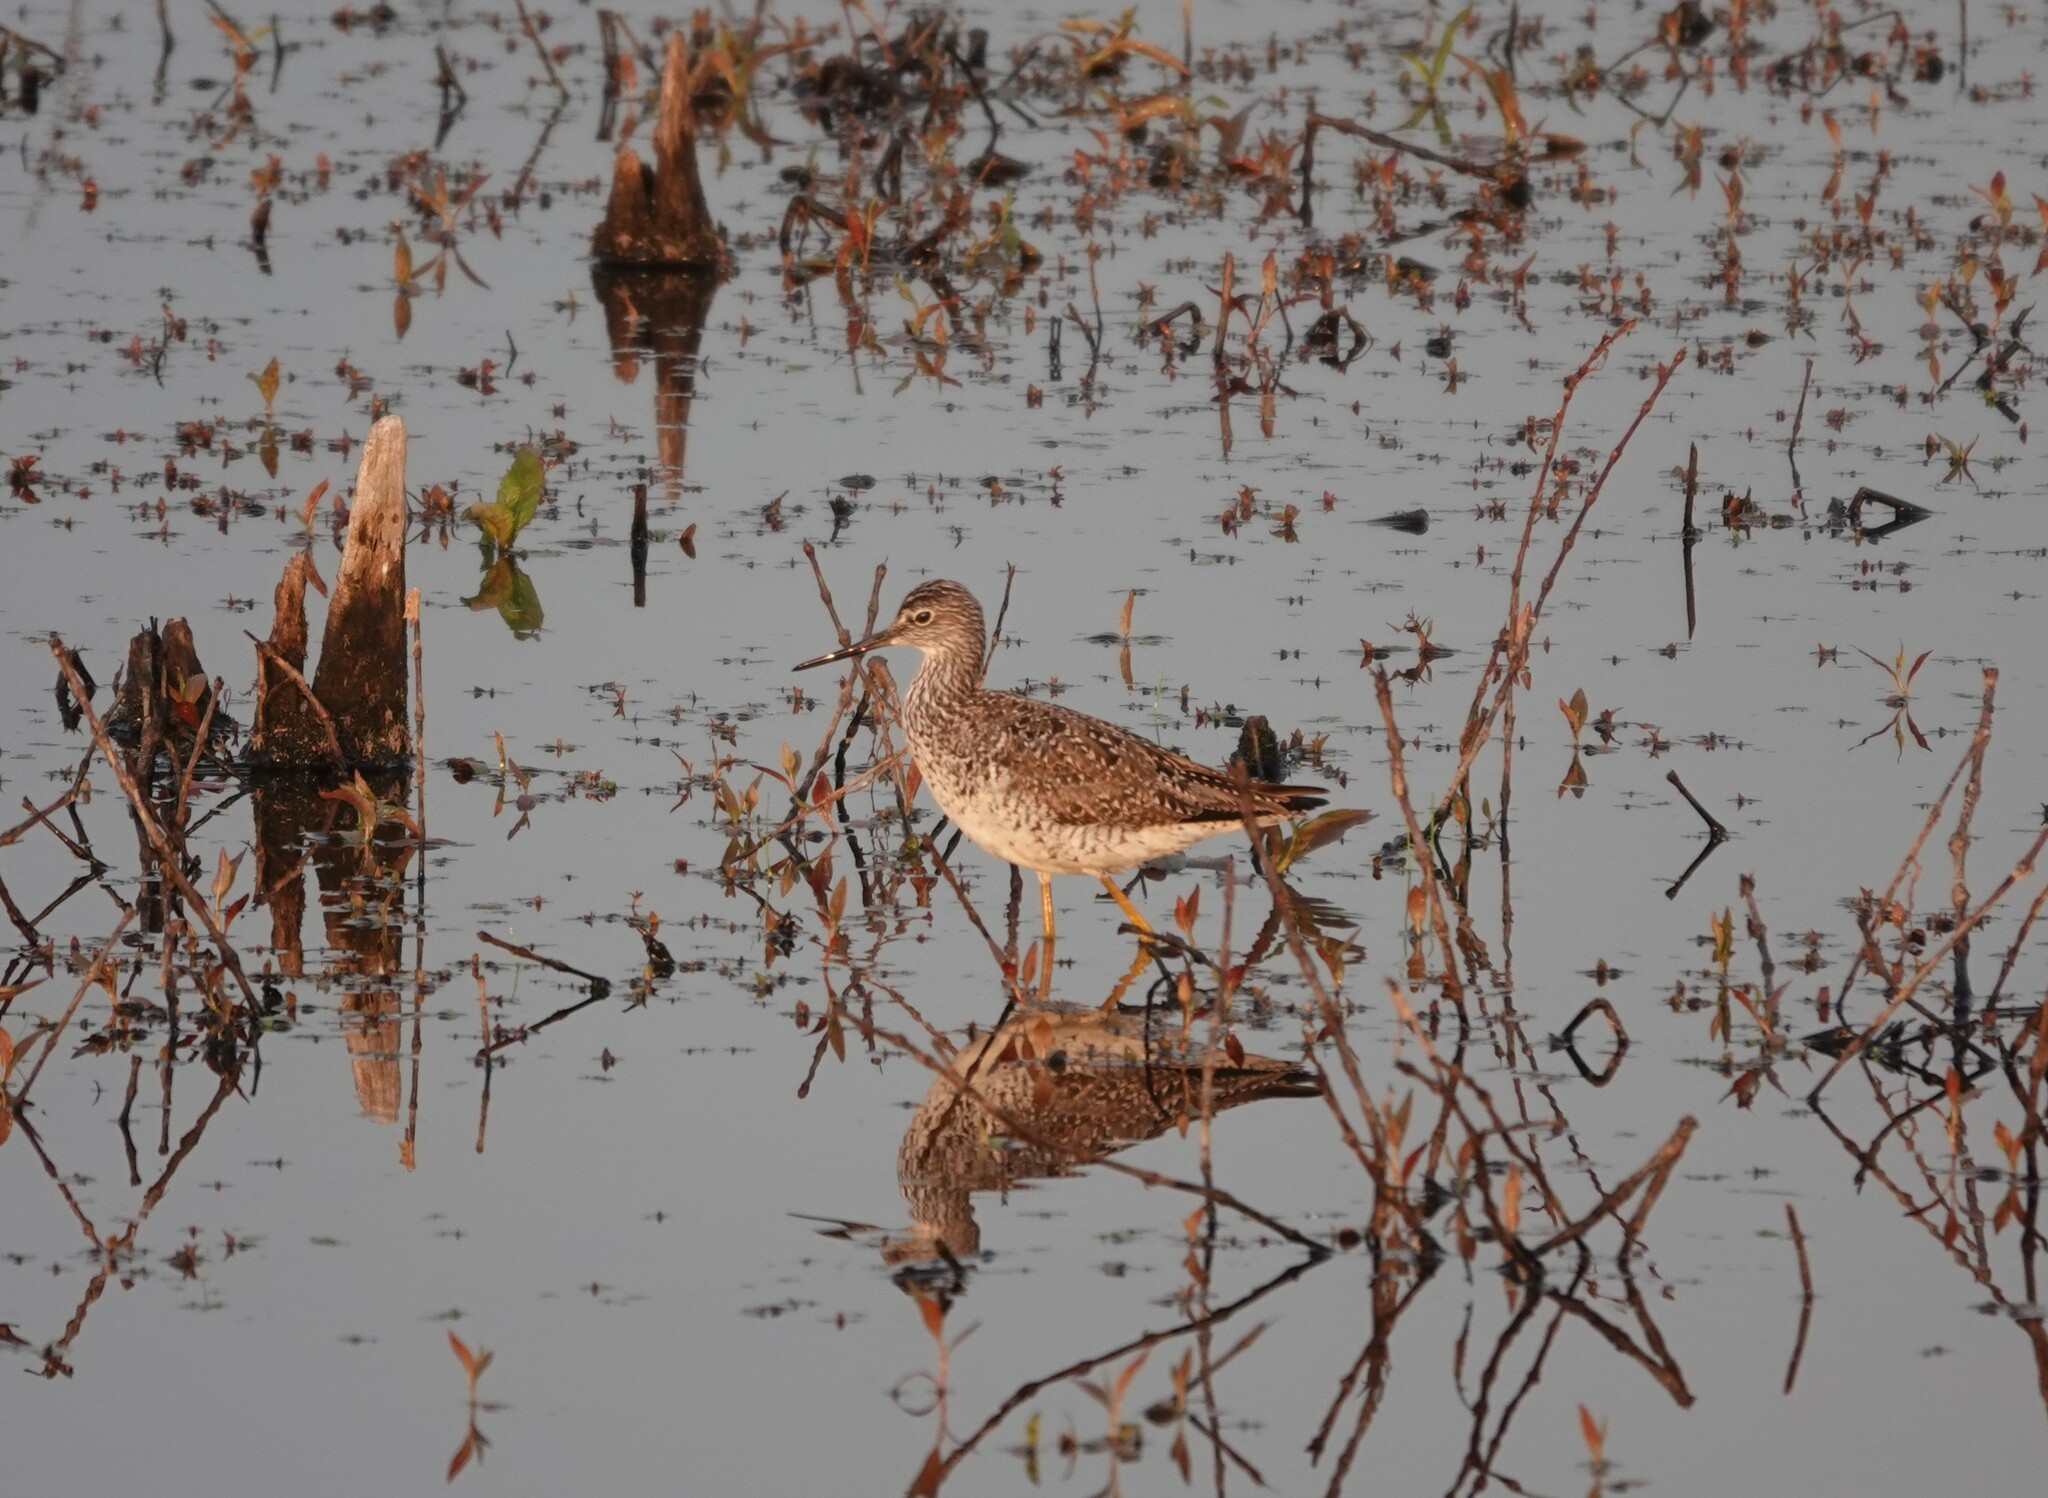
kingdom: Animalia
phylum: Chordata
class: Aves
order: Charadriiformes
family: Scolopacidae
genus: Tringa
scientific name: Tringa melanoleuca
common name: Greater yellowlegs
